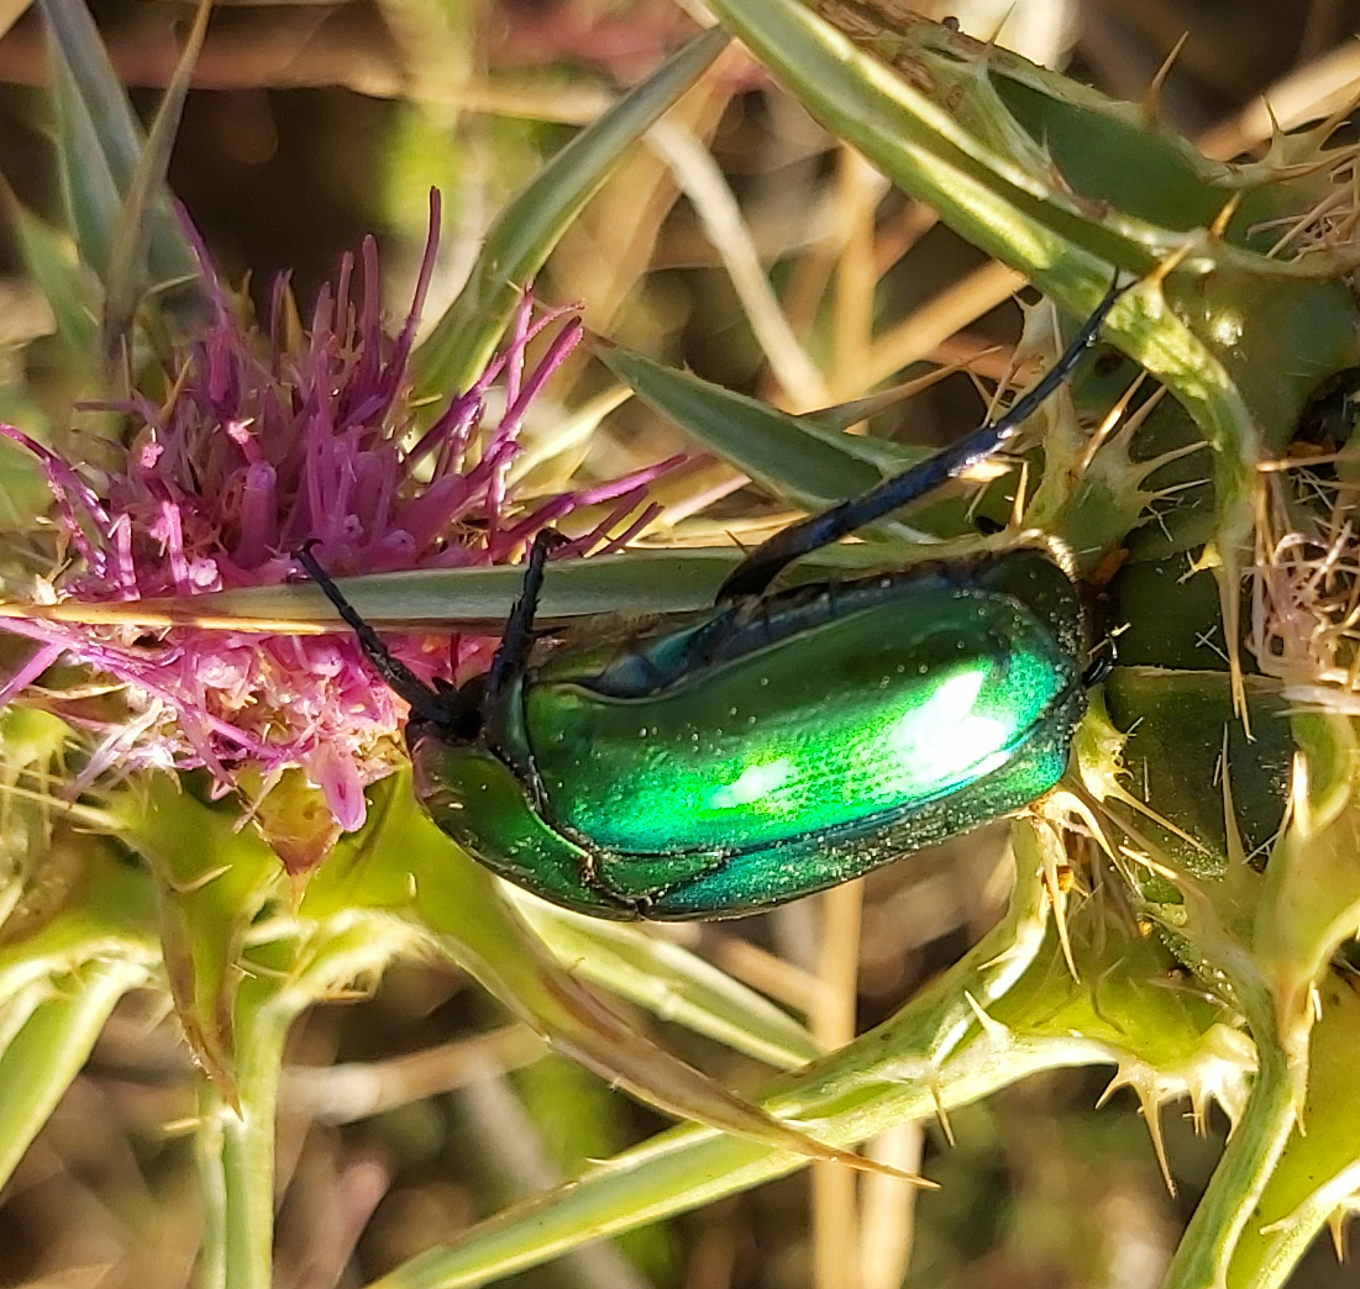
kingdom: Animalia
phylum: Arthropoda
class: Insecta
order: Coleoptera
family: Scarabaeidae
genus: Protaetia
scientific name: Protaetia cuprea
